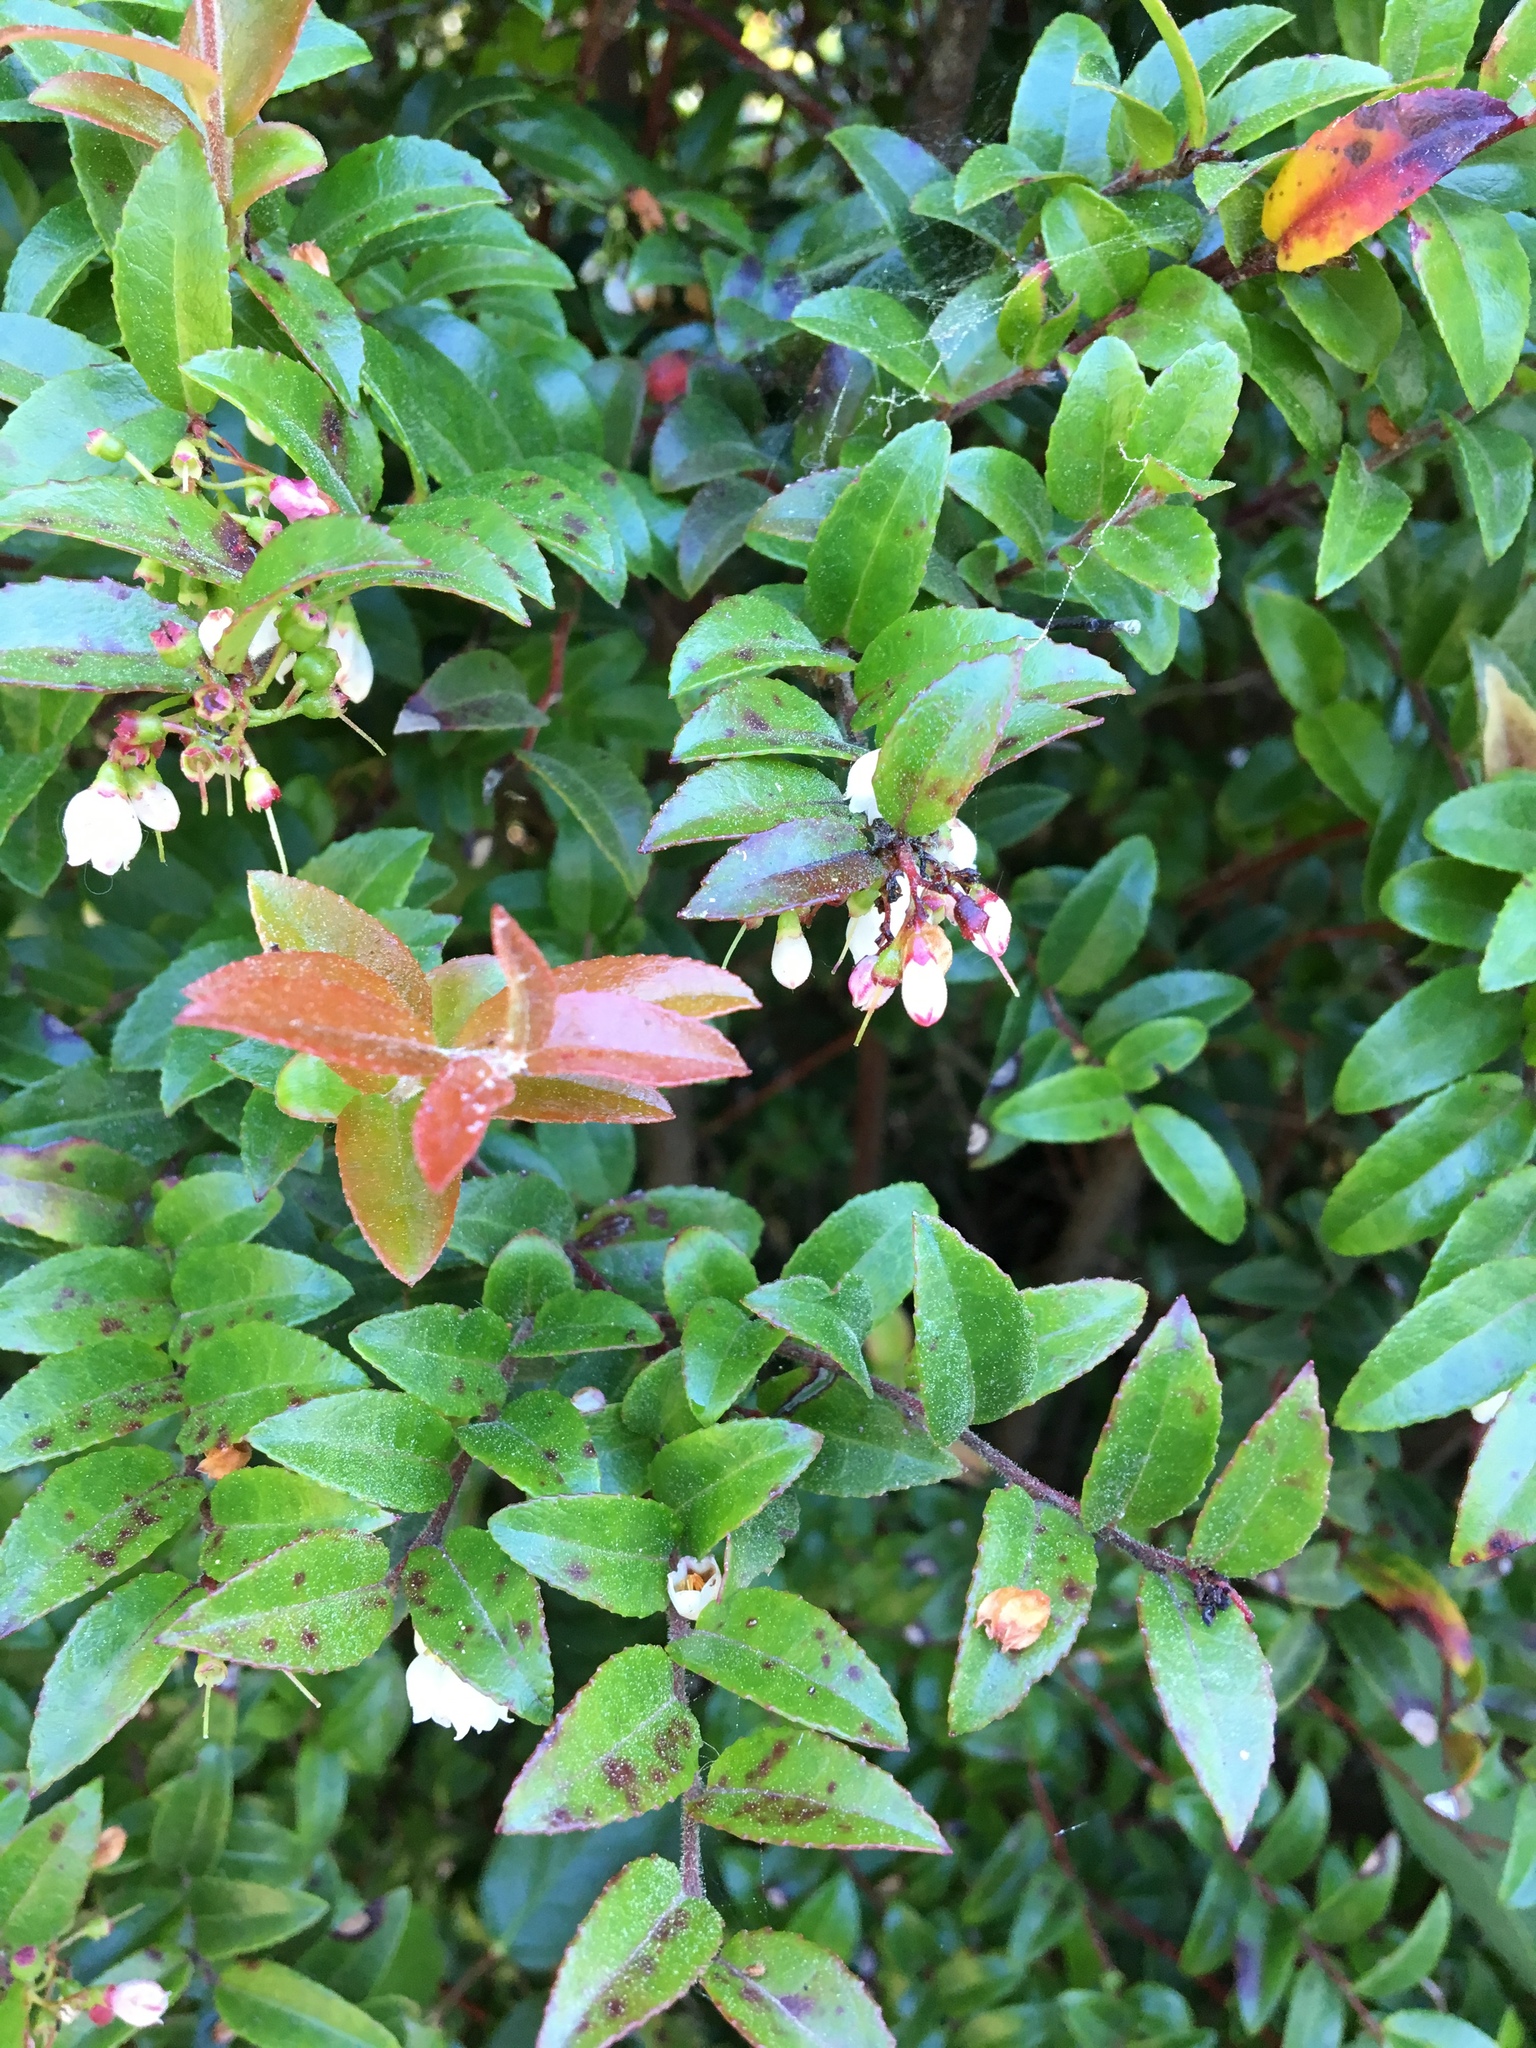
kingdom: Plantae
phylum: Tracheophyta
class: Magnoliopsida
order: Ericales
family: Ericaceae
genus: Vaccinium
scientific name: Vaccinium ovatum
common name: California-huckleberry
